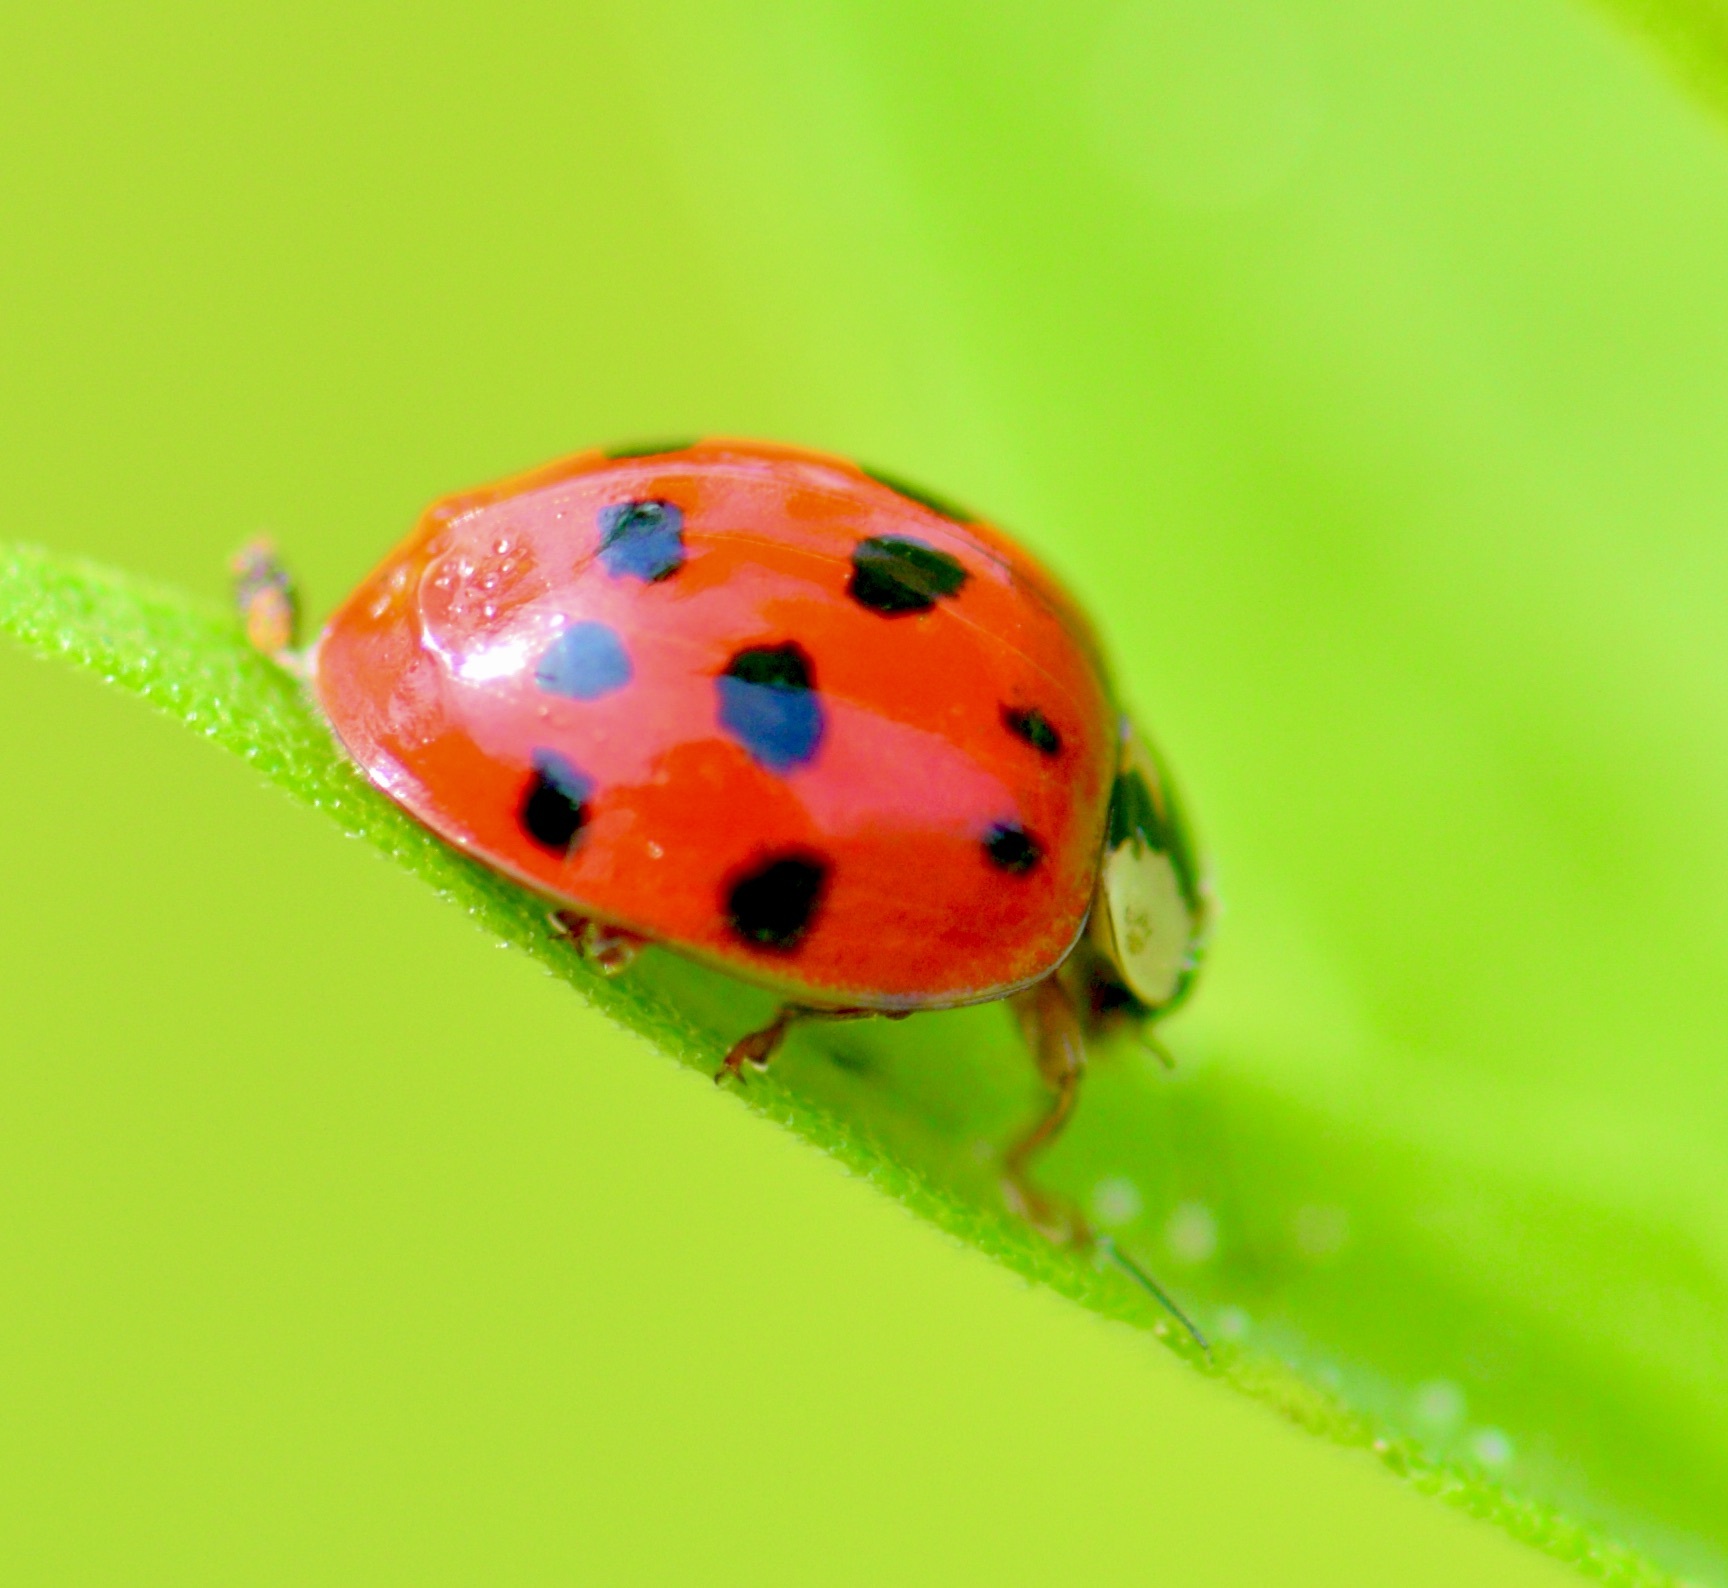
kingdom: Animalia
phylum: Arthropoda
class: Insecta
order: Coleoptera
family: Coccinellidae
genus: Harmonia
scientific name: Harmonia axyridis
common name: Harlequin ladybird
